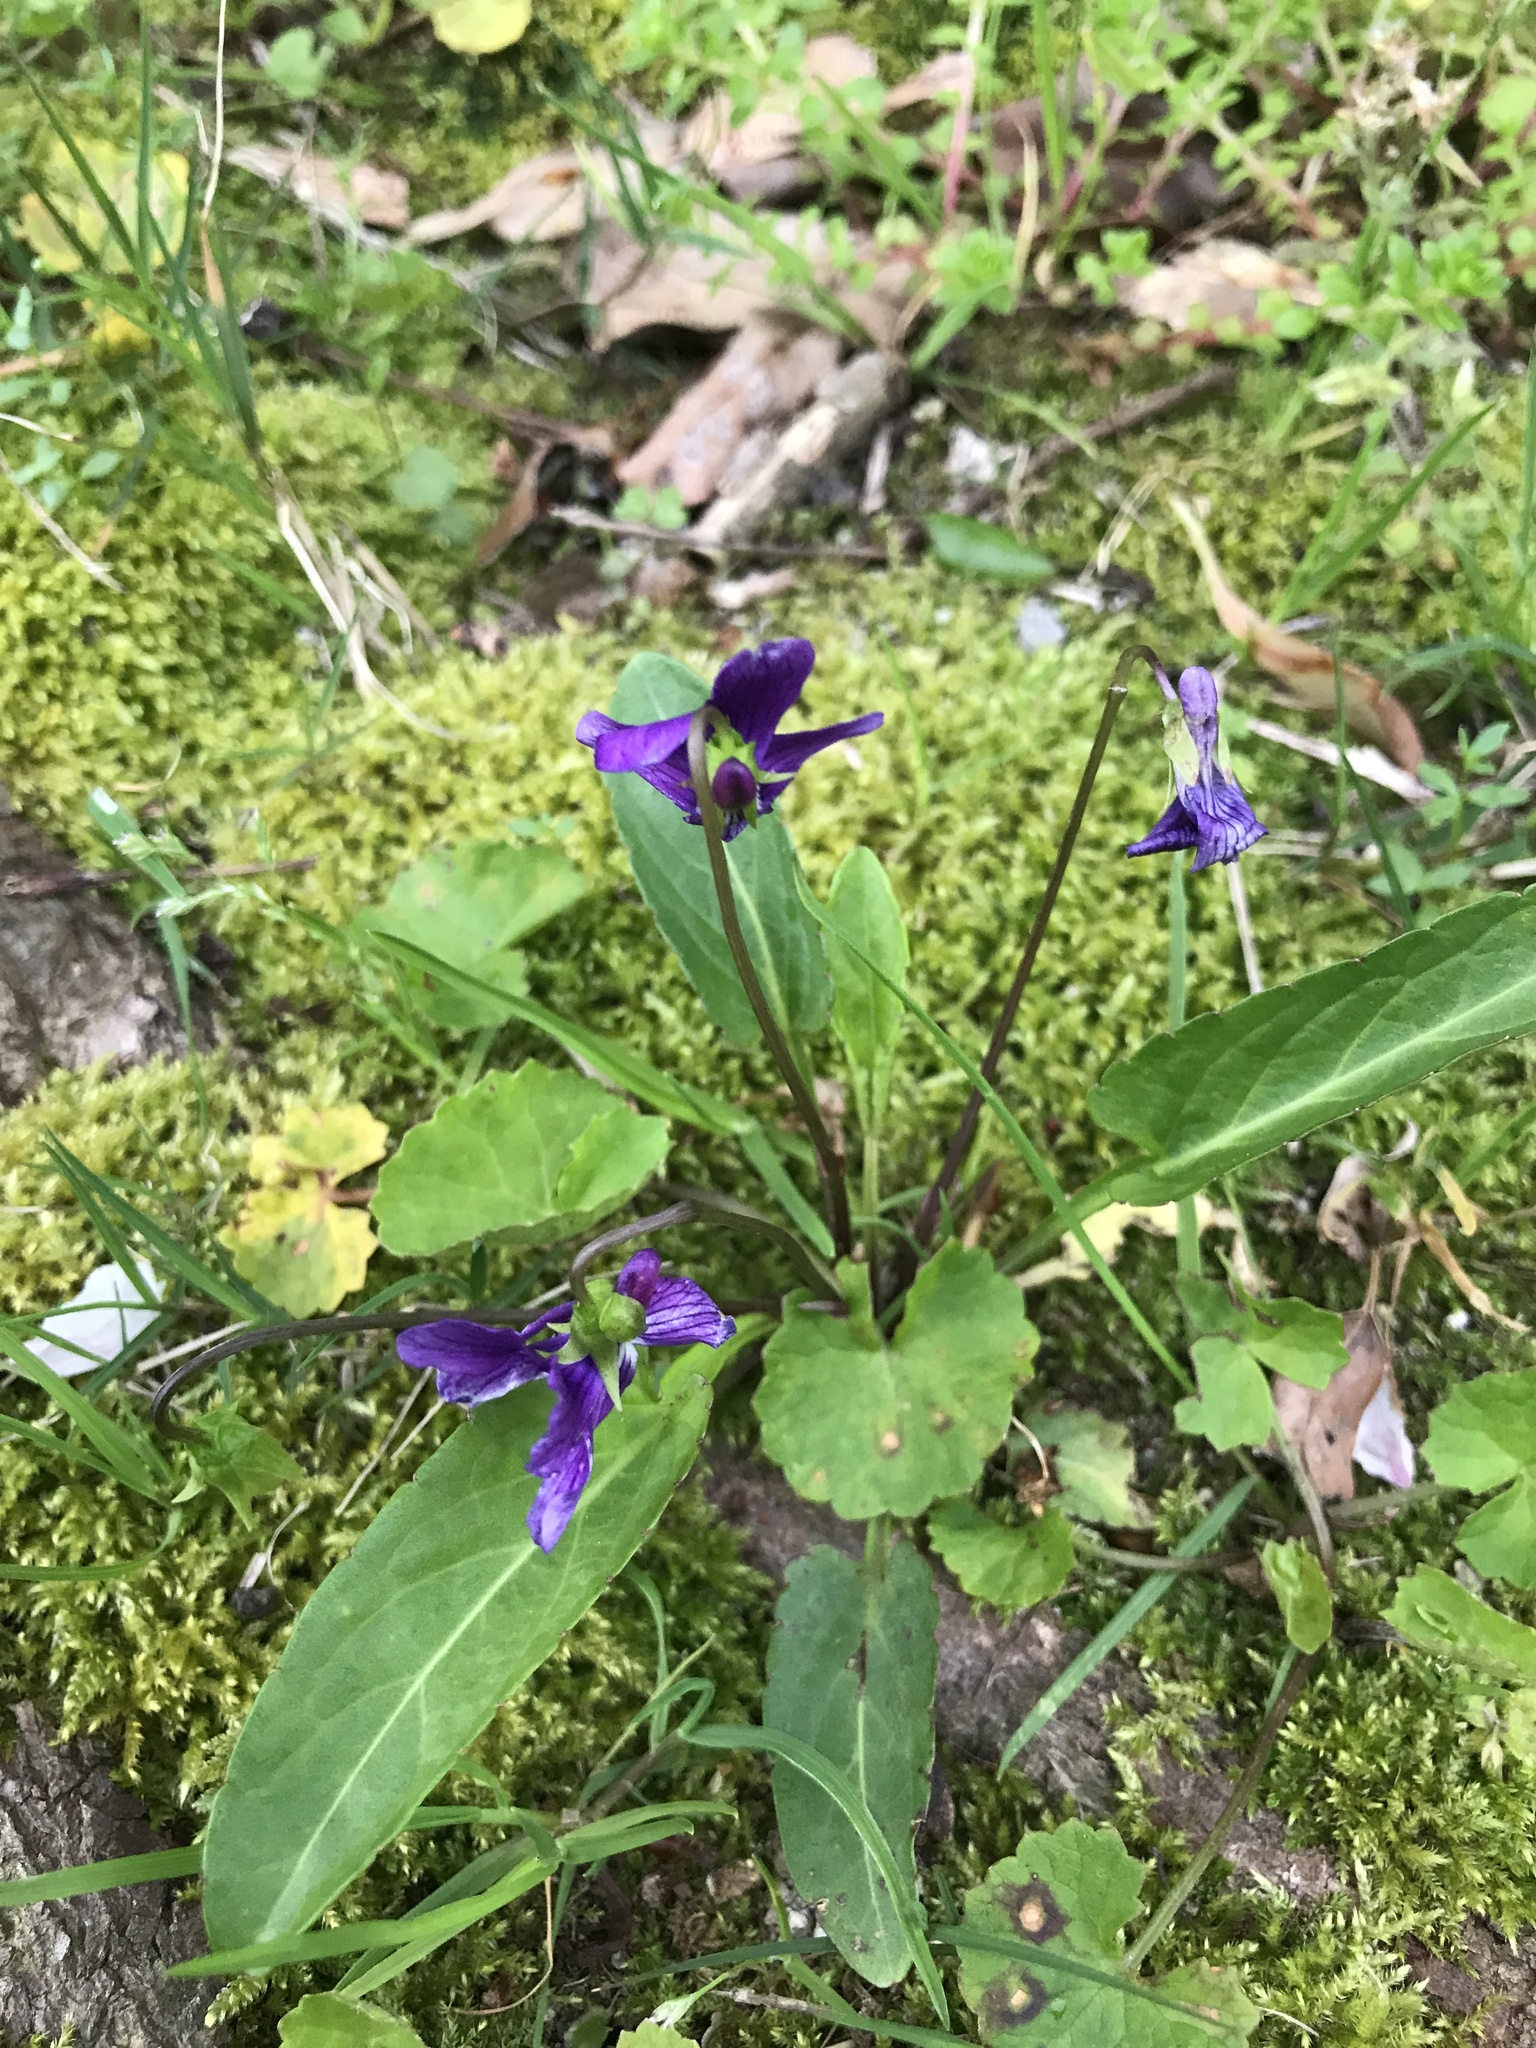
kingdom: Plantae
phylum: Tracheophyta
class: Magnoliopsida
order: Malpighiales
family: Violaceae
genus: Viola
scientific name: Viola mandshurica
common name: Manchuria violet
